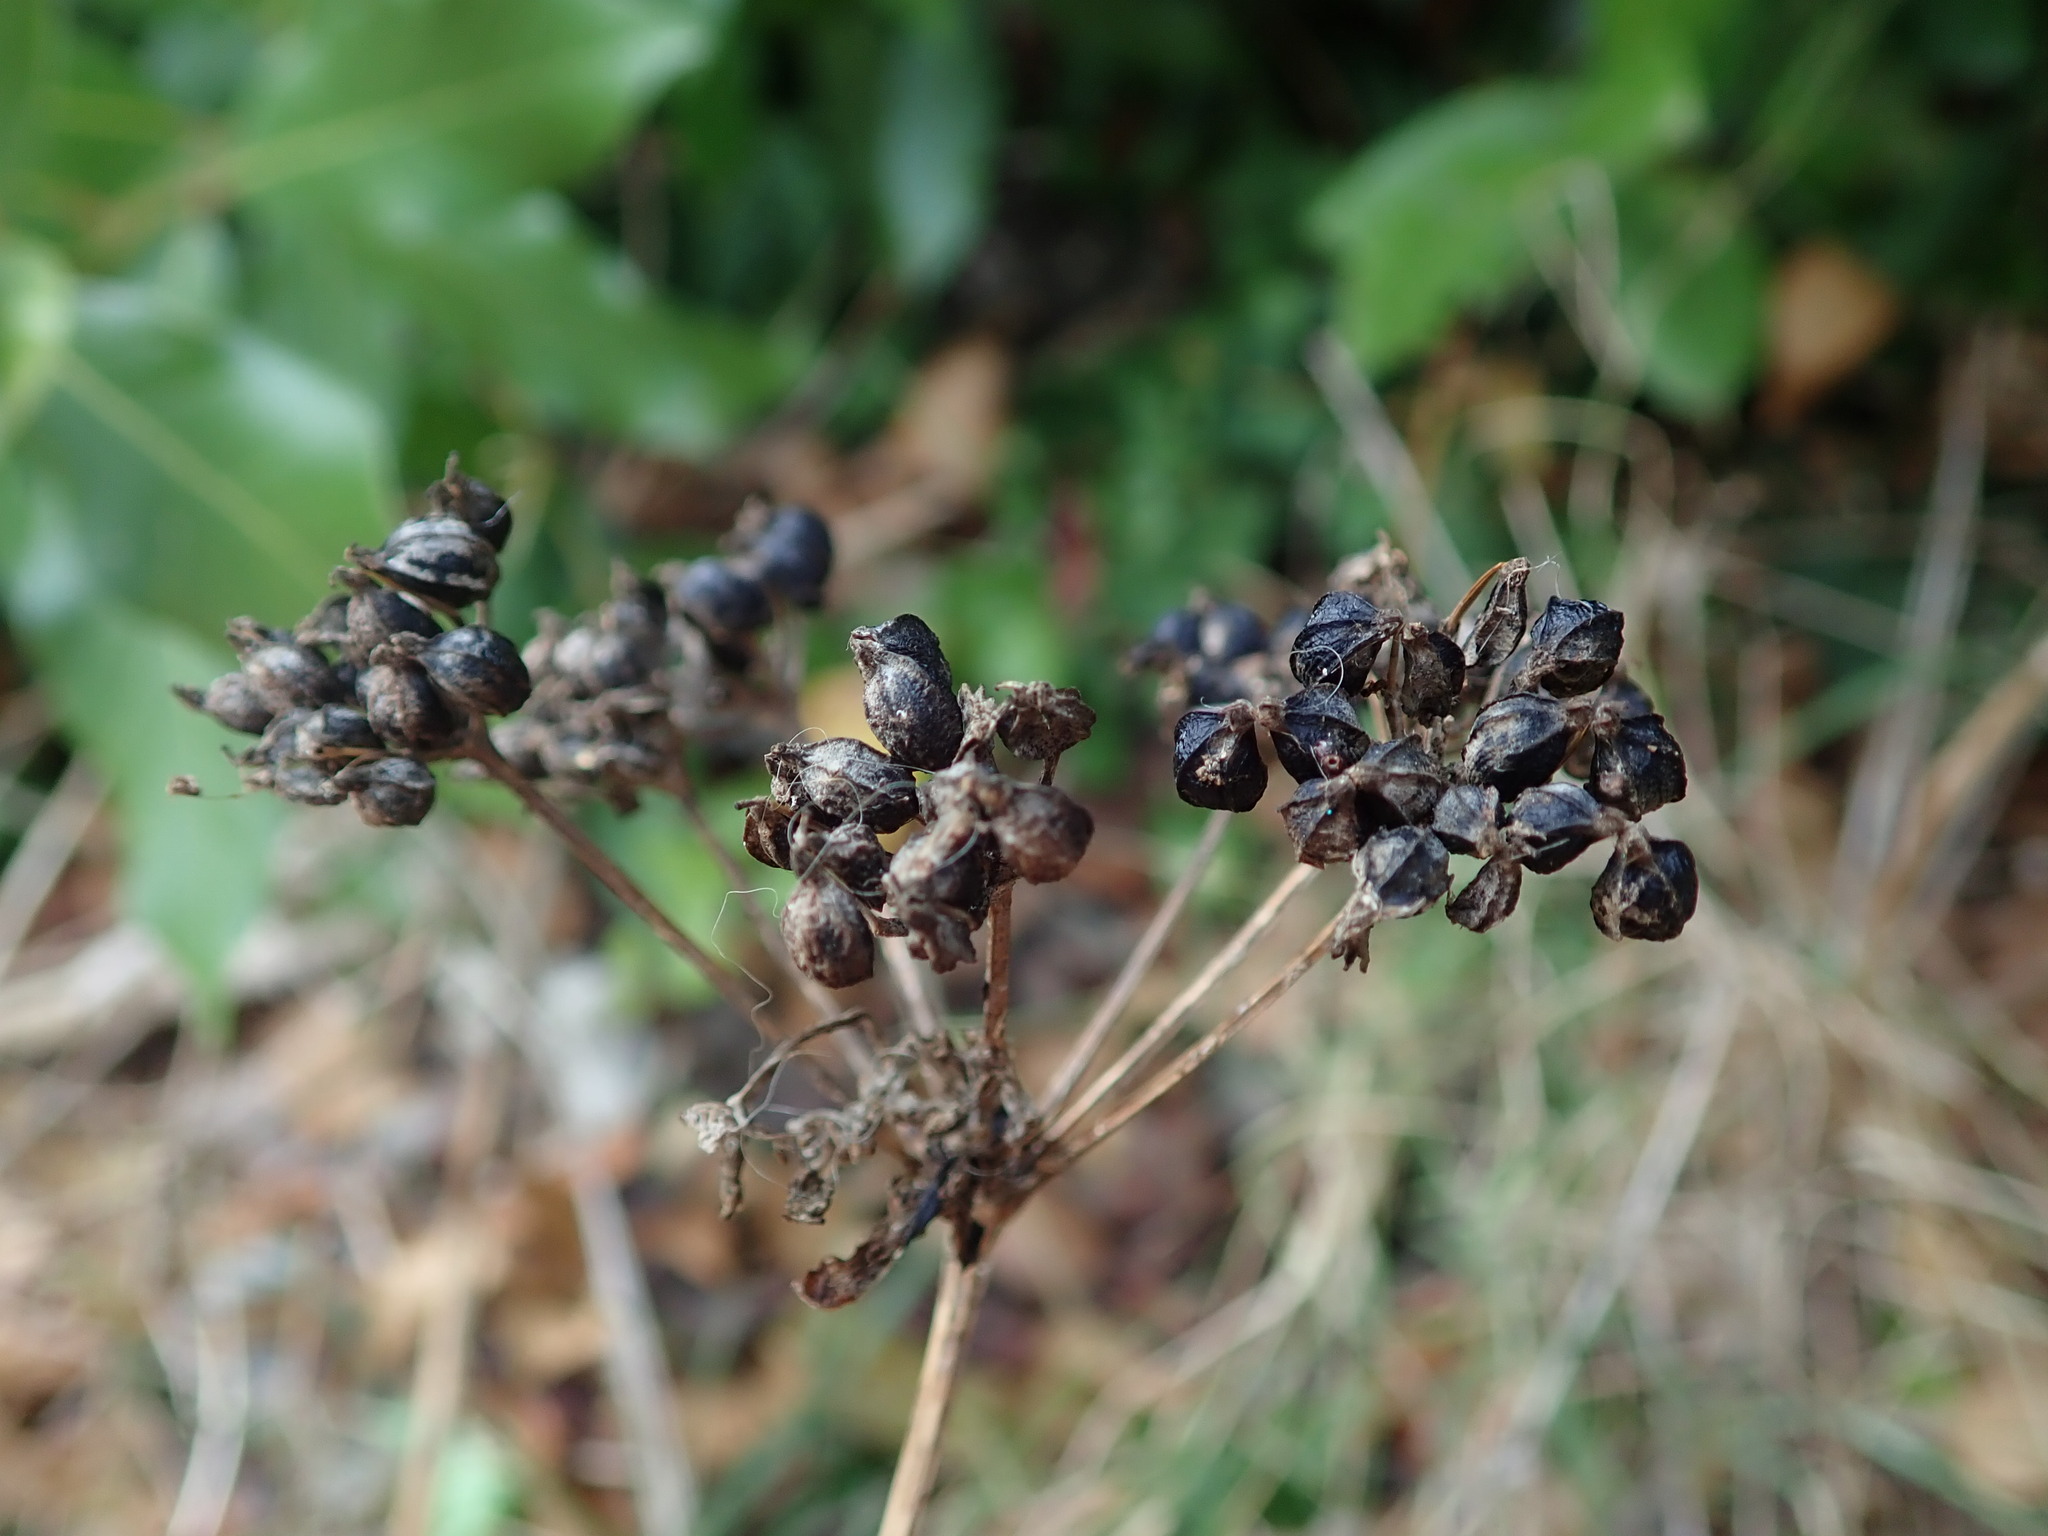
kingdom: Plantae
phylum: Tracheophyta
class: Magnoliopsida
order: Apiales
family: Apiaceae
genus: Smyrnium
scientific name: Smyrnium olusatrum
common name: Alexanders
